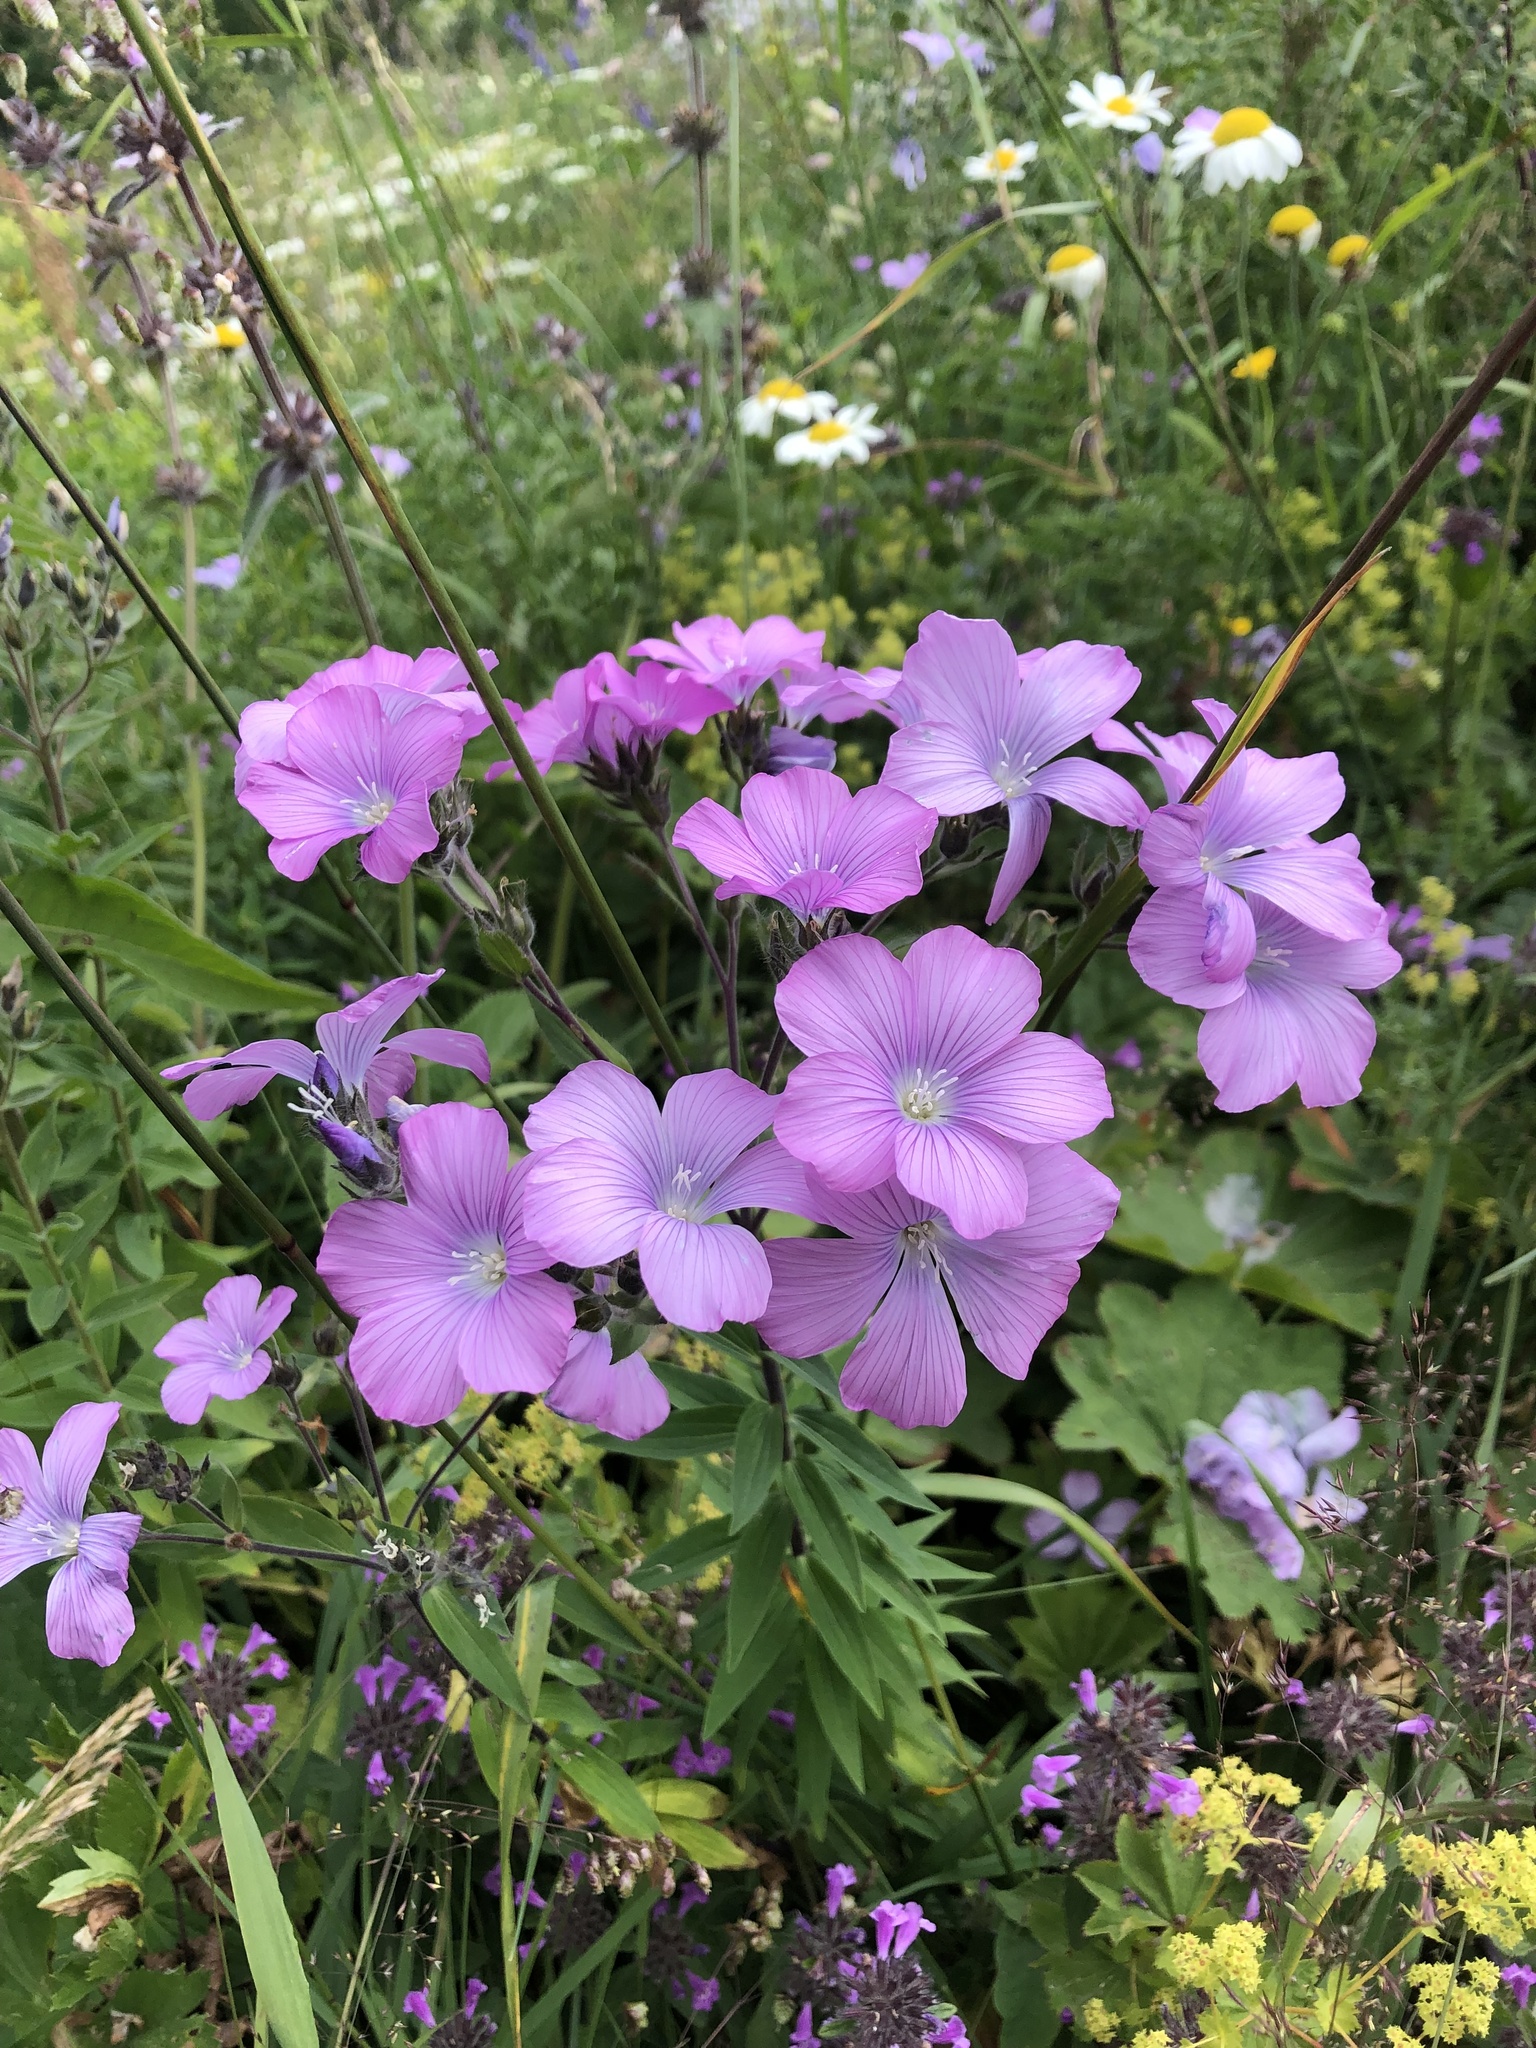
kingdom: Plantae
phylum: Tracheophyta
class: Magnoliopsida
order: Malpighiales
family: Linaceae
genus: Linum
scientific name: Linum hypericifolium
